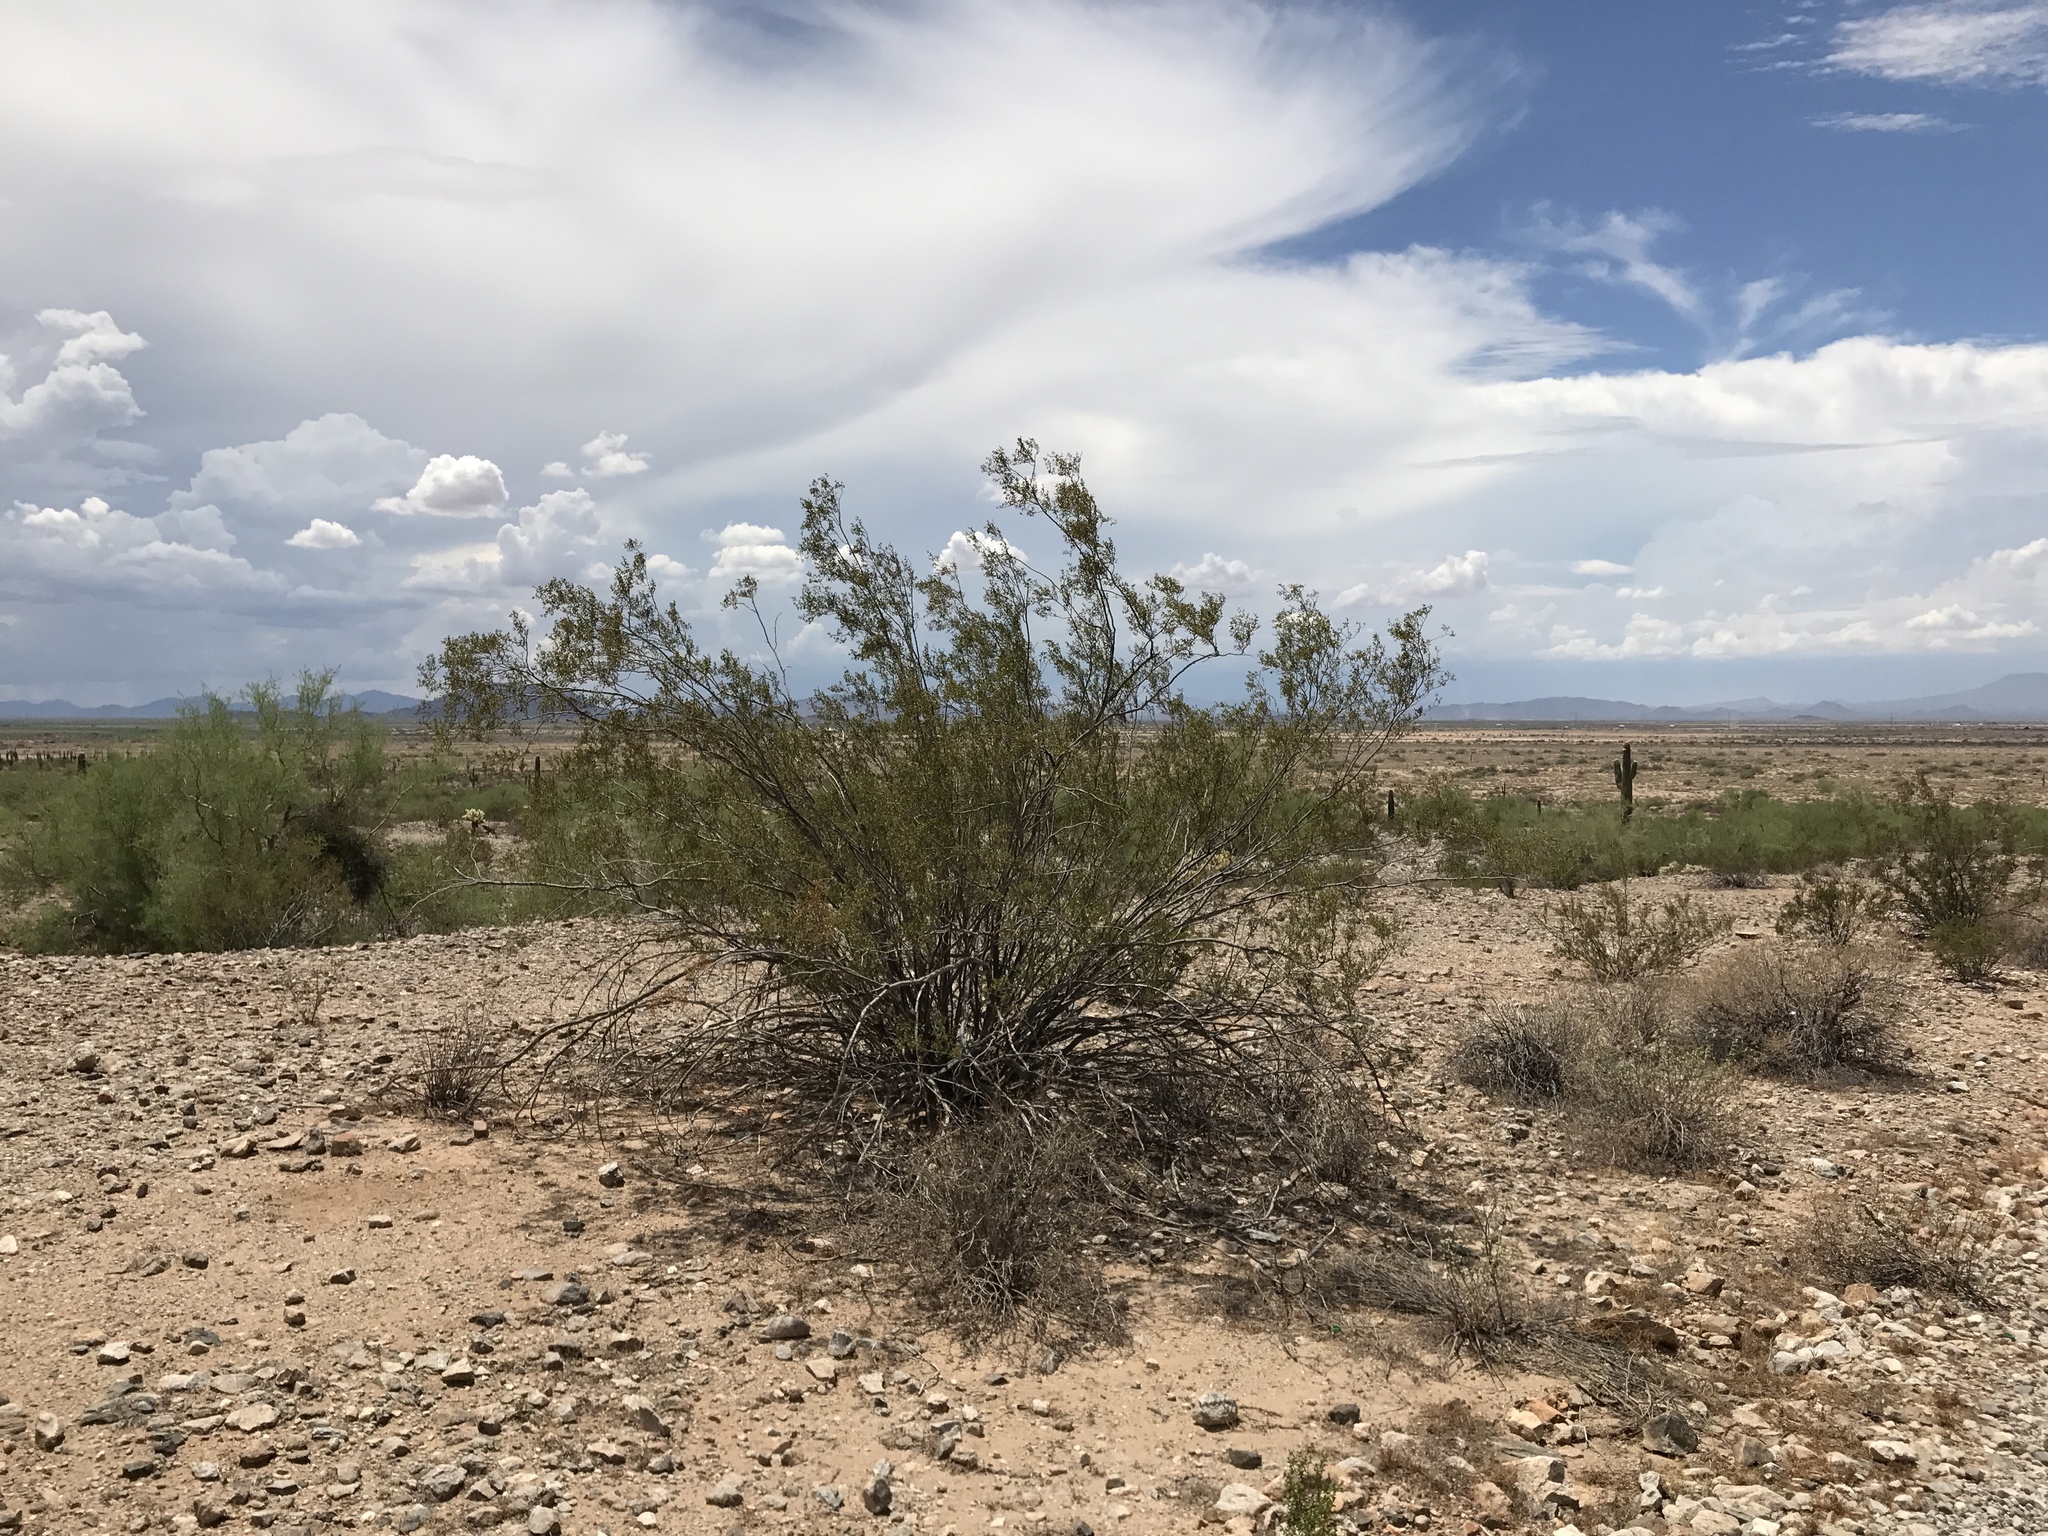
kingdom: Plantae
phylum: Tracheophyta
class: Magnoliopsida
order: Zygophyllales
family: Zygophyllaceae
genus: Larrea
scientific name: Larrea tridentata
